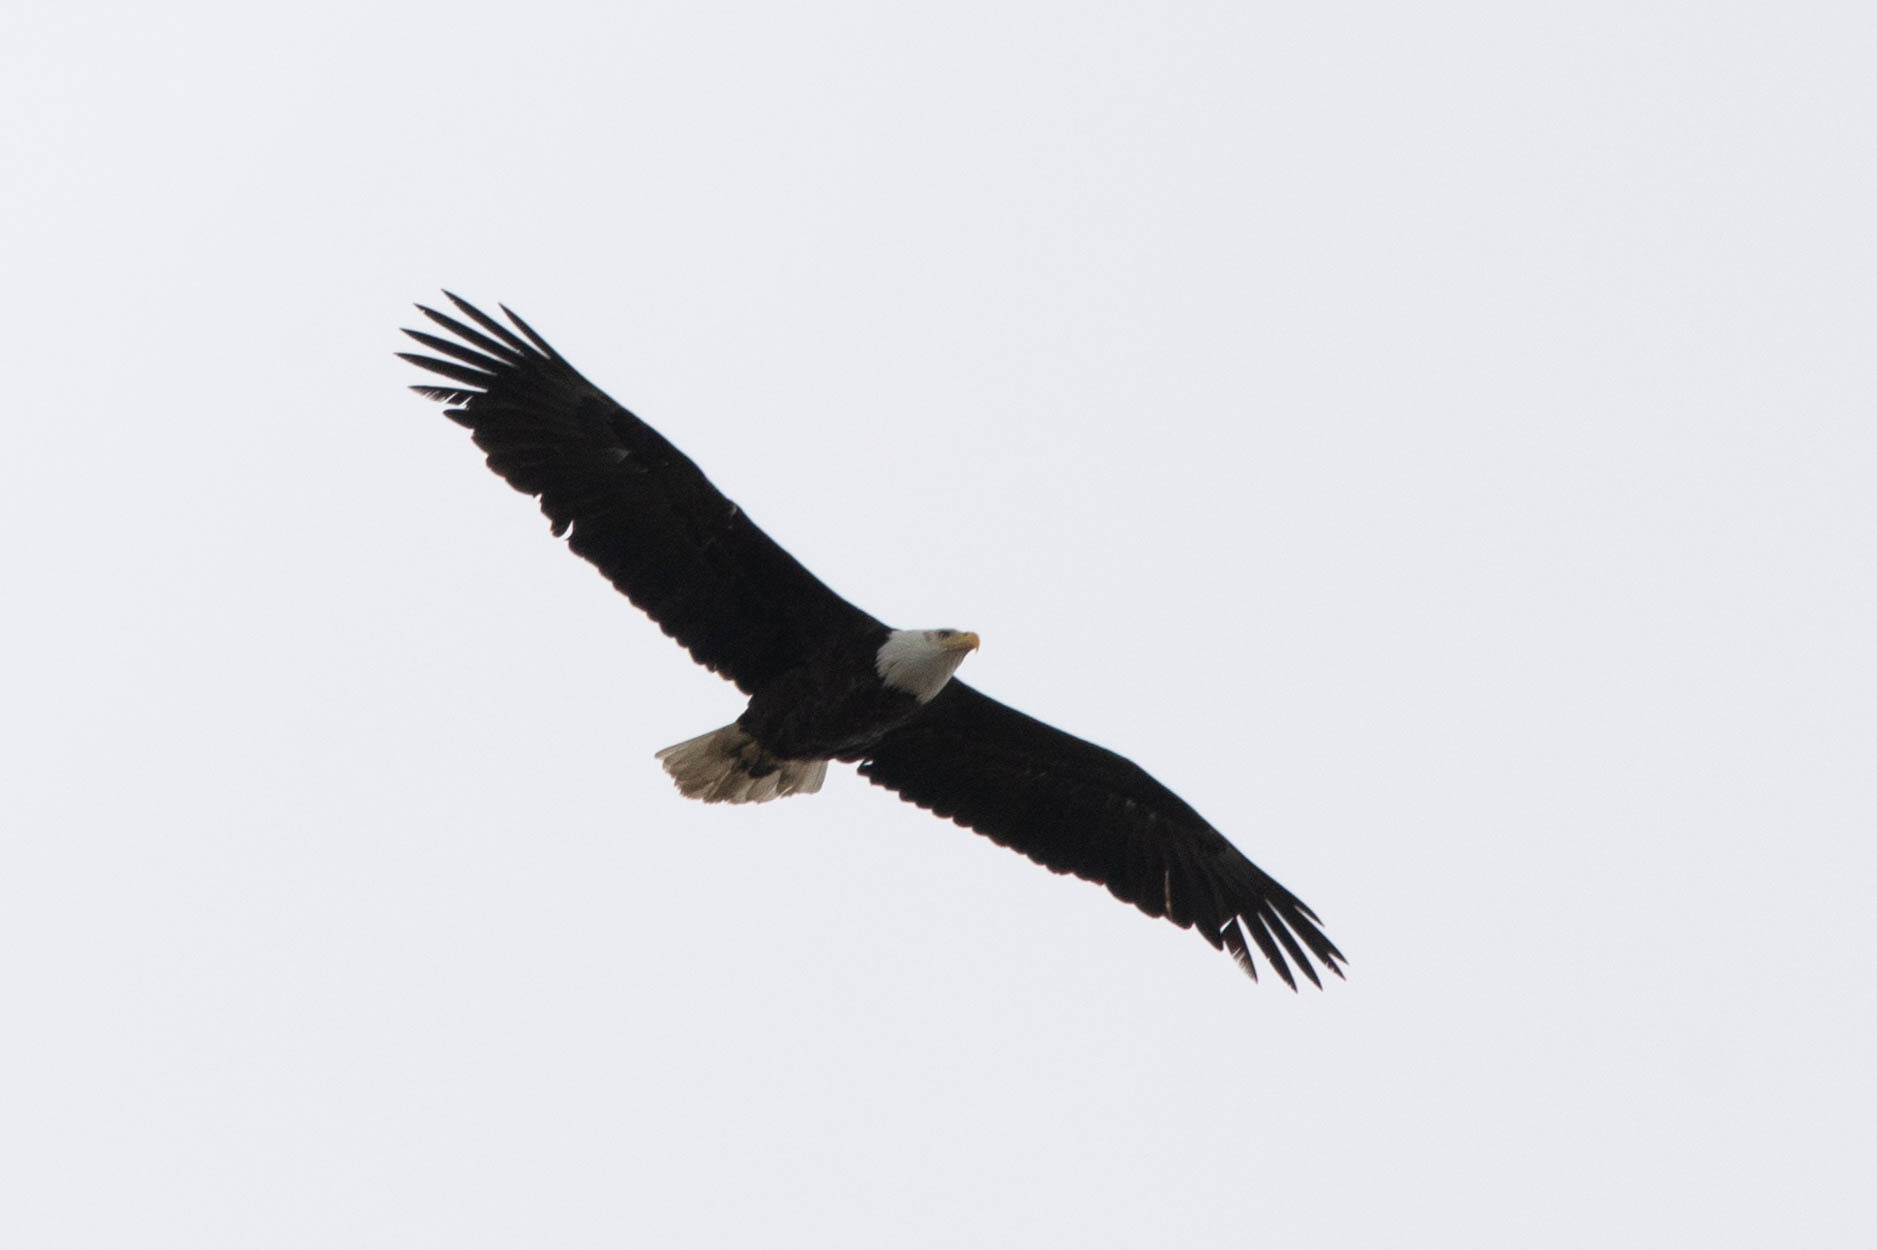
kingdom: Animalia
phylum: Chordata
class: Aves
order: Accipitriformes
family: Accipitridae
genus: Haliaeetus
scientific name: Haliaeetus leucocephalus
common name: Bald eagle
